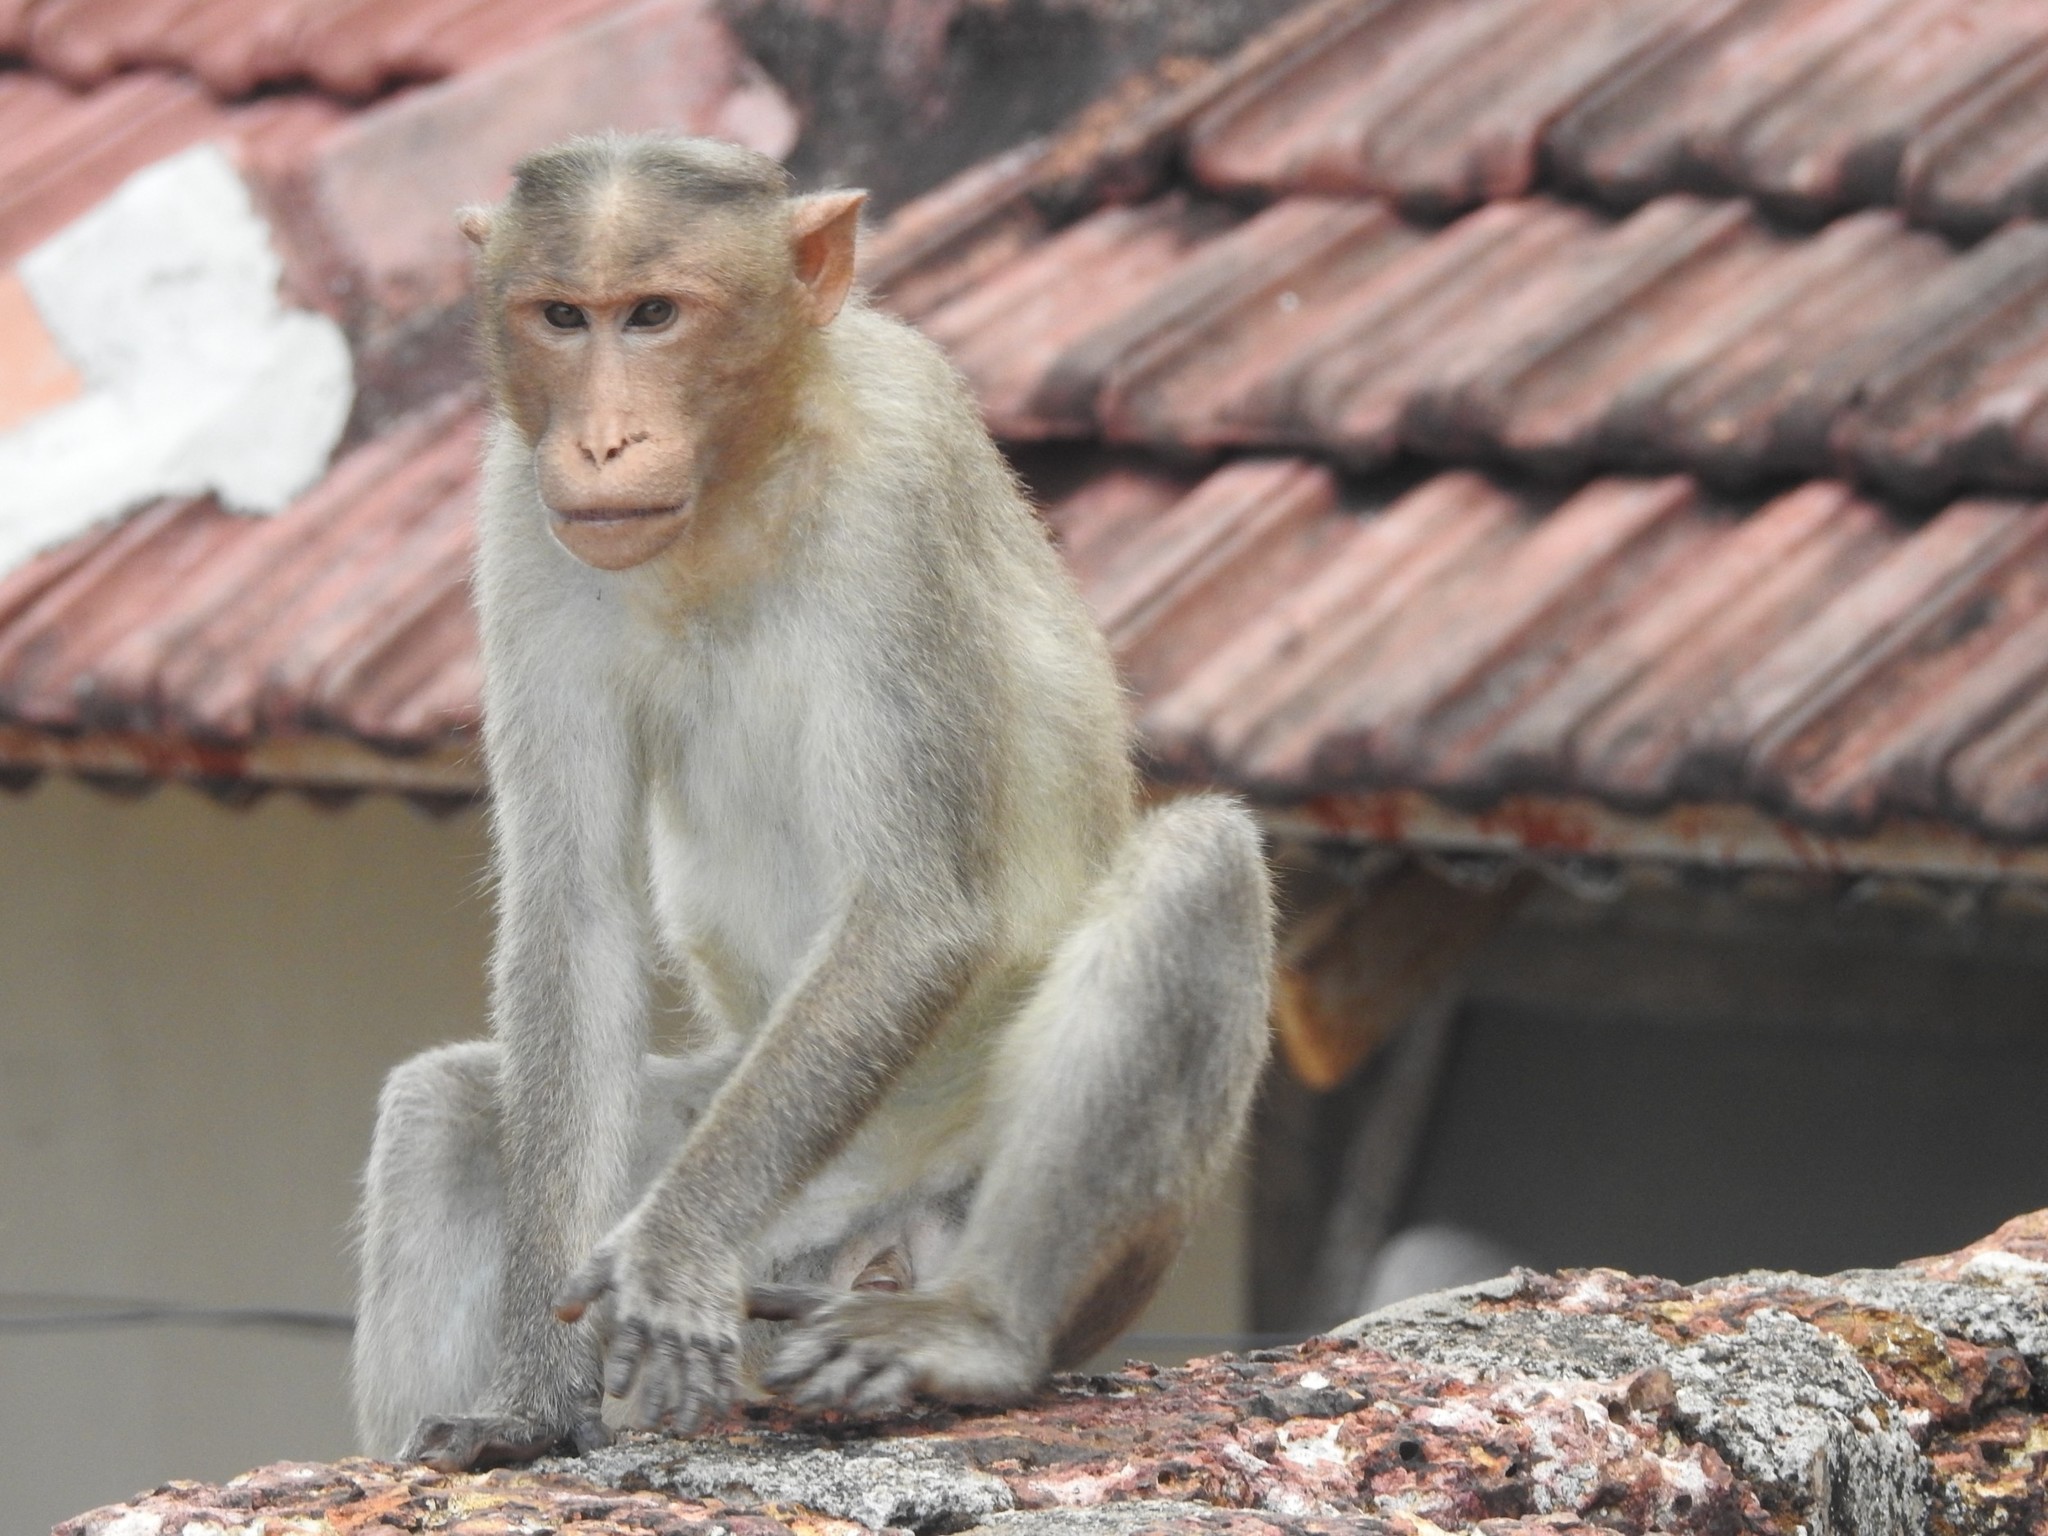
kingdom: Animalia
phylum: Chordata
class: Mammalia
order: Primates
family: Cercopithecidae
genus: Macaca
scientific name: Macaca radiata
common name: Bonnet macaque
